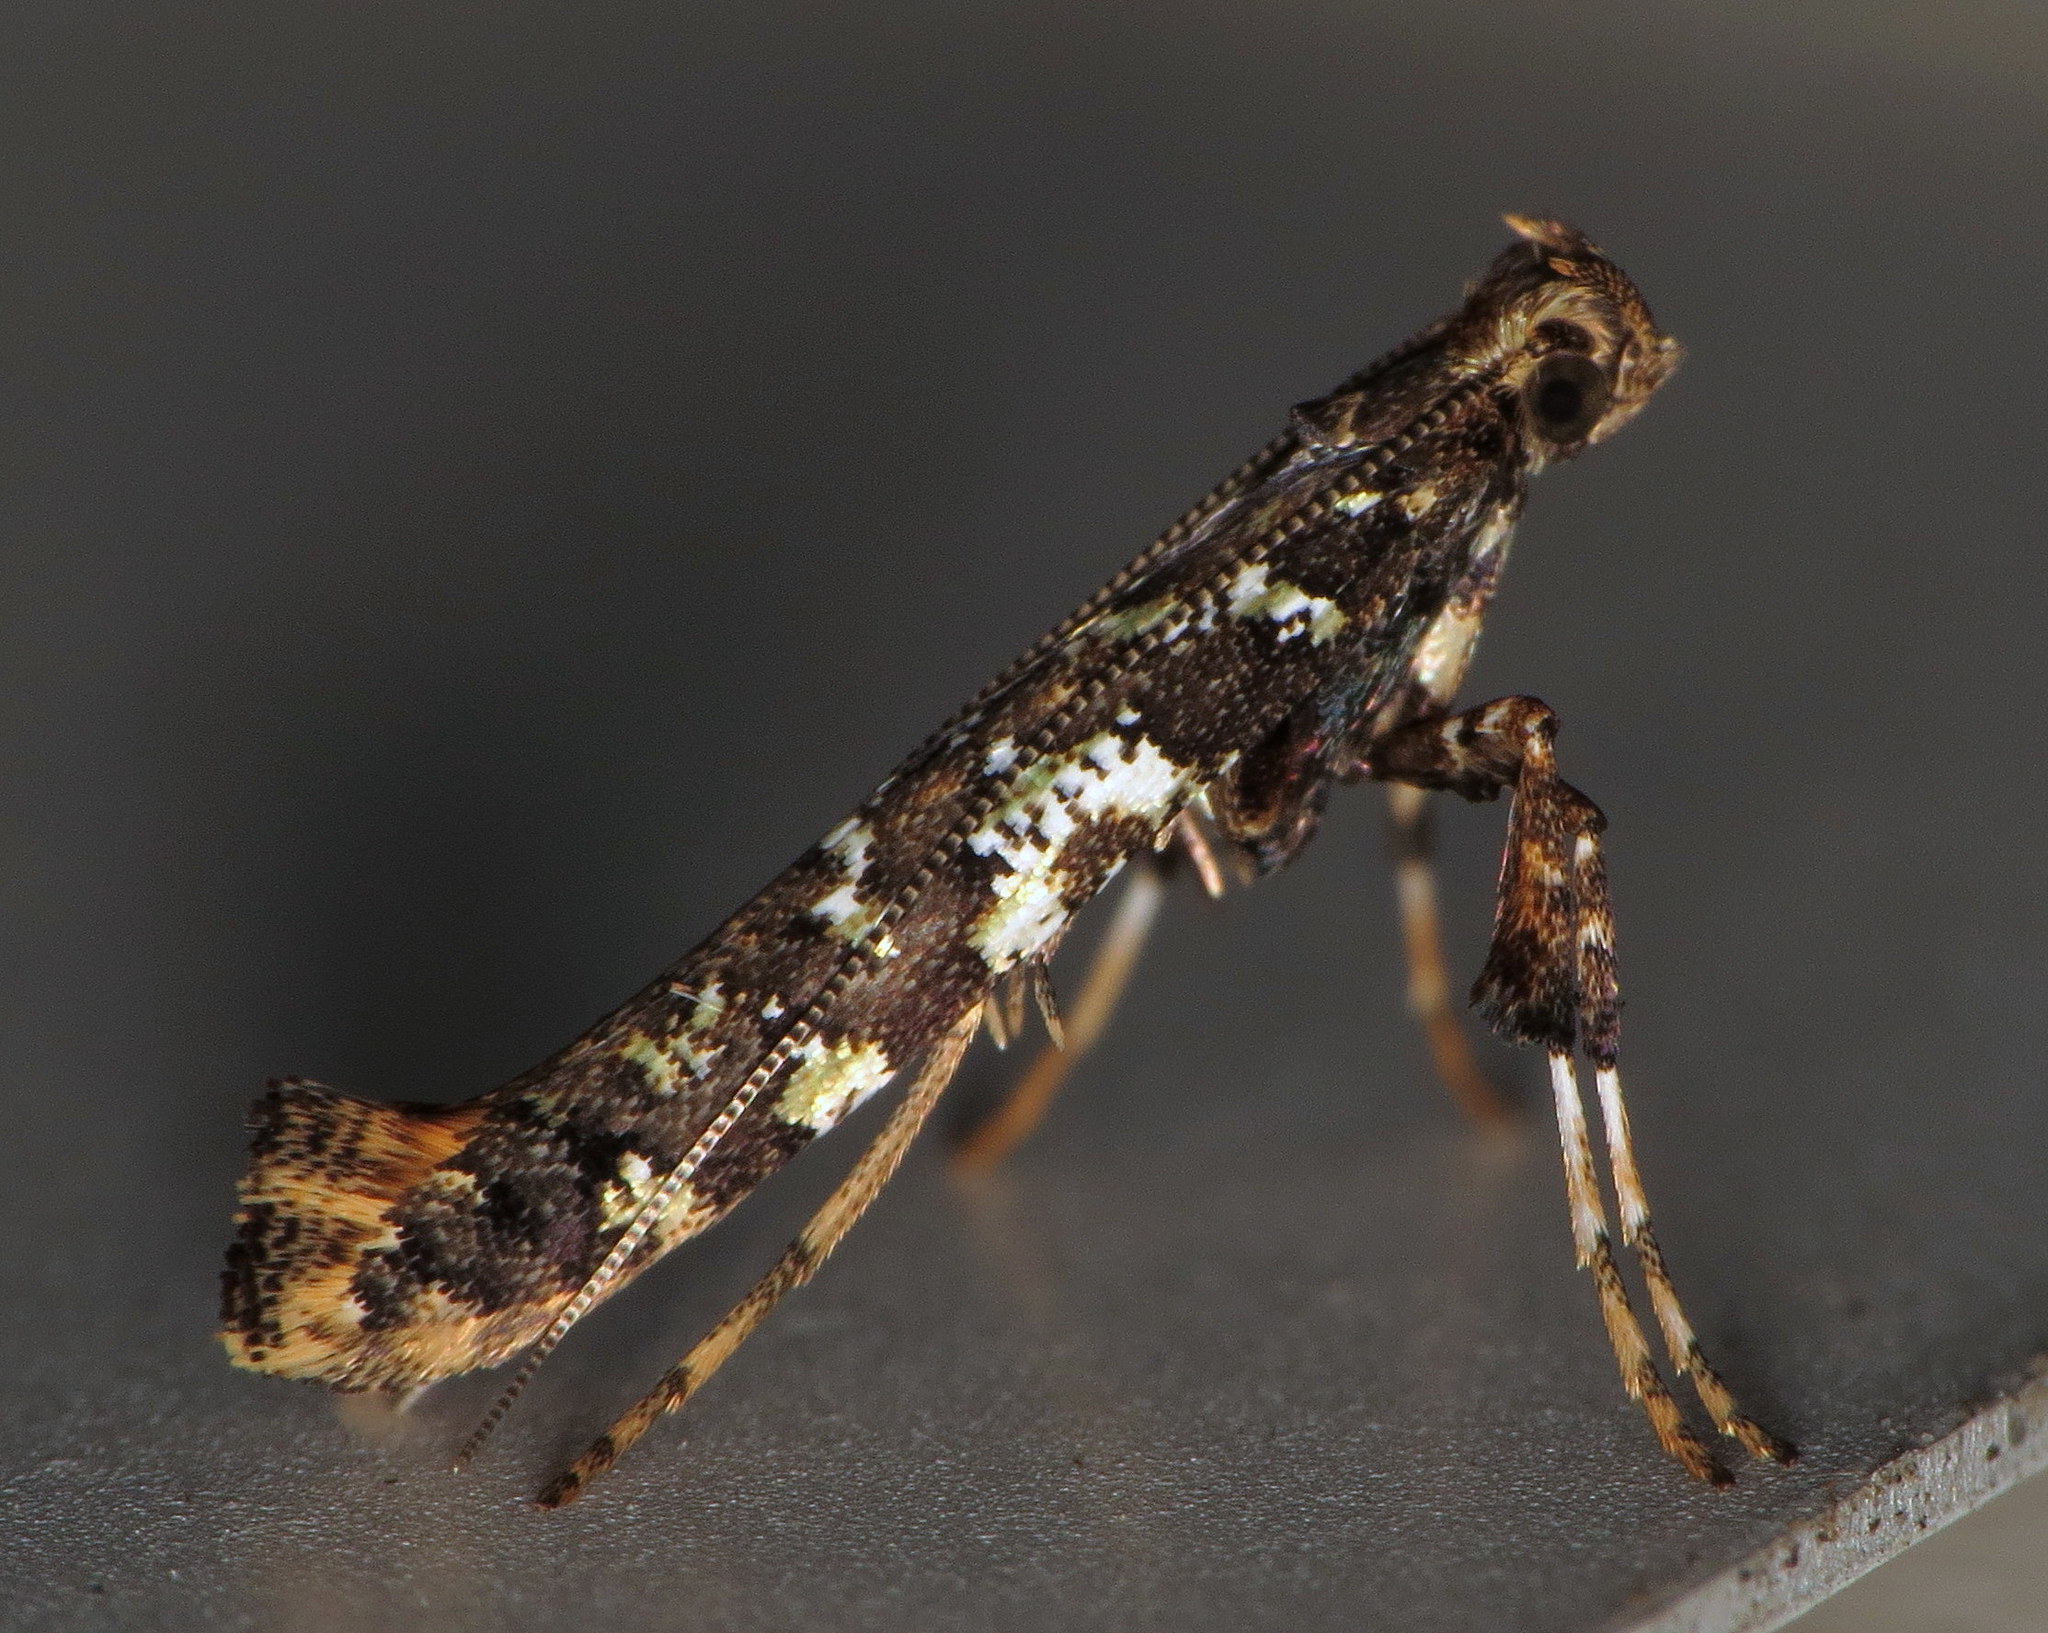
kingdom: Animalia
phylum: Arthropoda
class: Insecta
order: Lepidoptera
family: Gracillariidae
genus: Caloptilia
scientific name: Caloptilia serotinella
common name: Cherry leafroller moth
